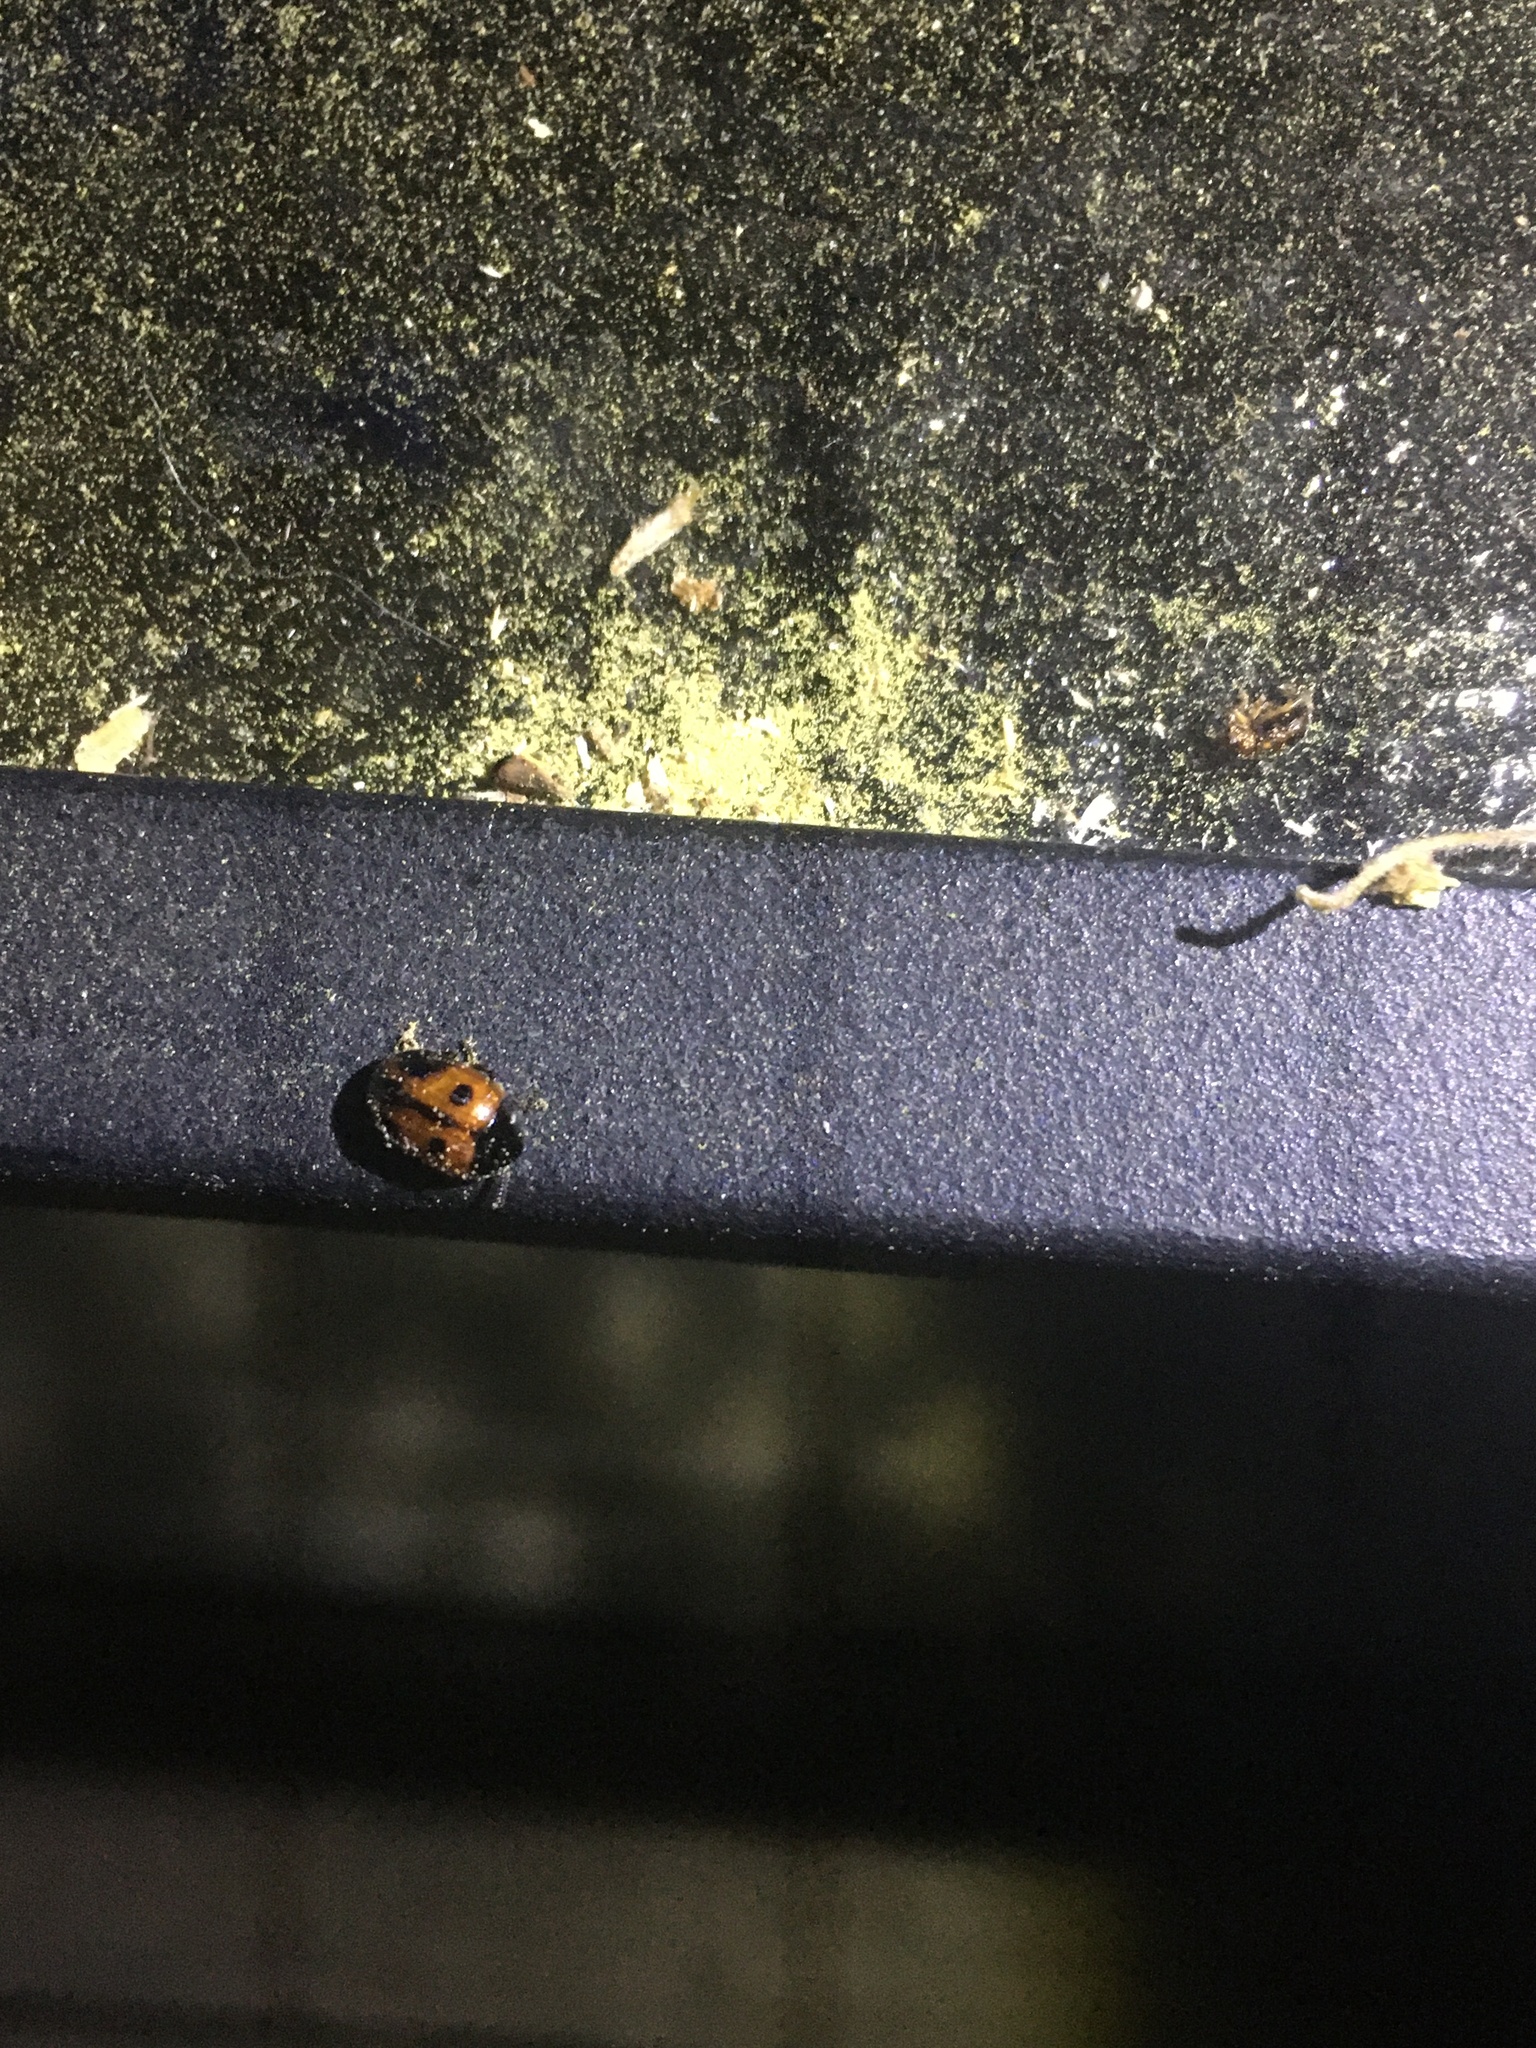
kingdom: Animalia
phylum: Arthropoda
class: Insecta
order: Coleoptera
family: Tenebrionidae
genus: Diaperis
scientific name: Diaperis maculata
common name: Darkling beetle
